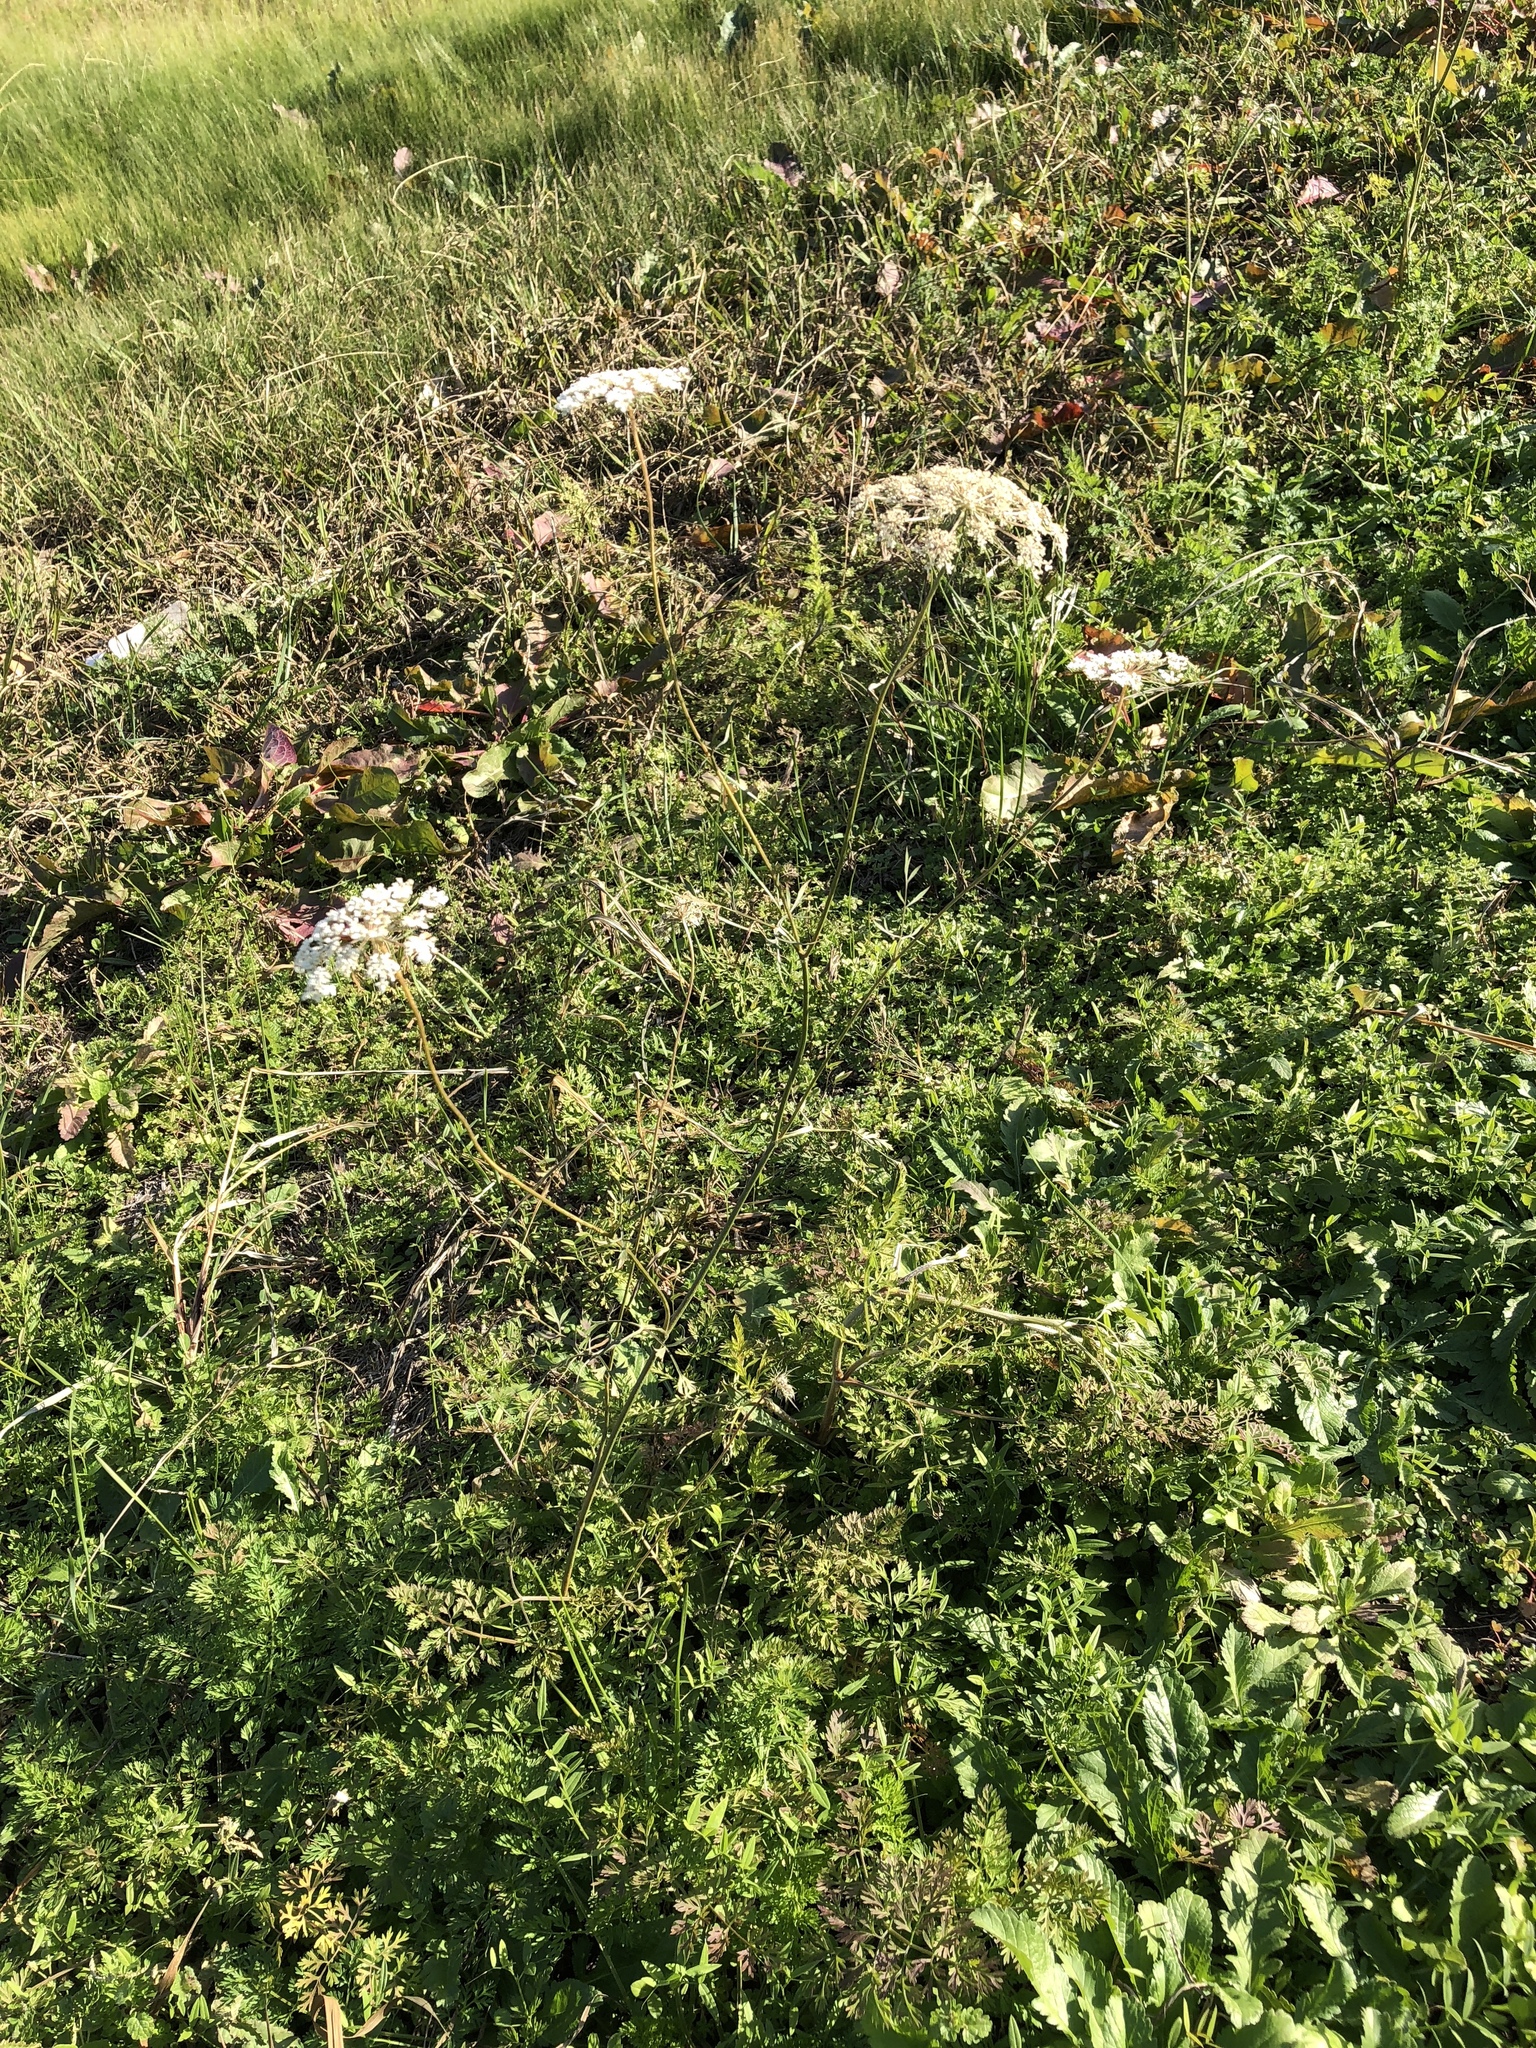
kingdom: Plantae
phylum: Tracheophyta
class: Magnoliopsida
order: Apiales
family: Apiaceae
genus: Daucus
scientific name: Daucus carota
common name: Wild carrot
